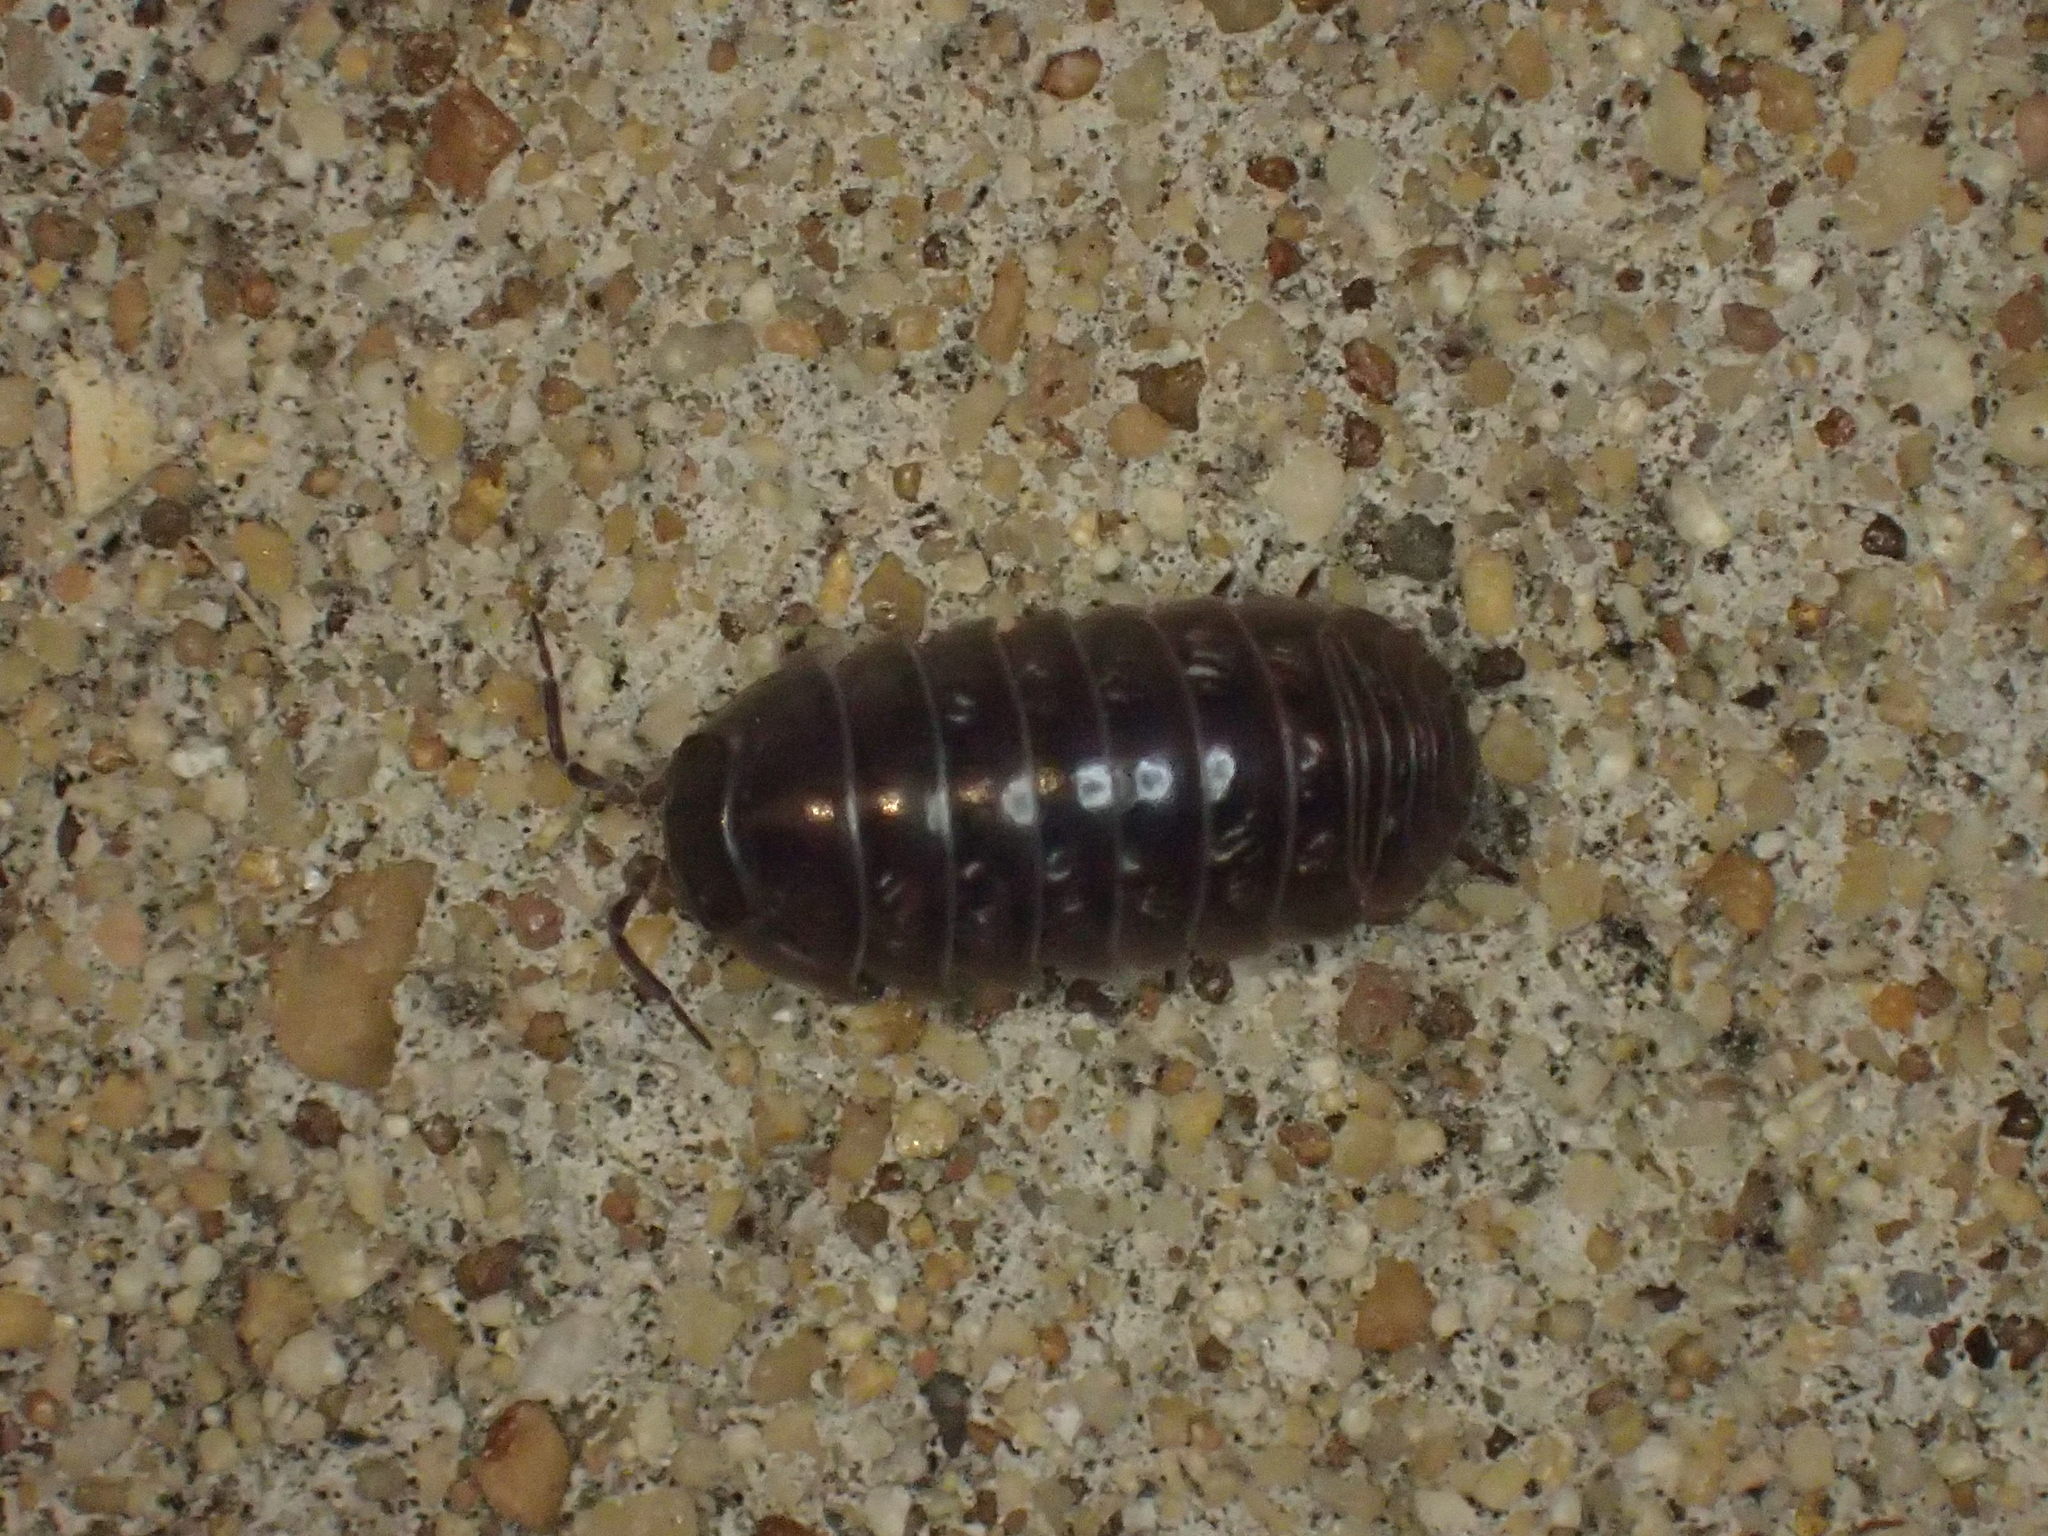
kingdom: Animalia
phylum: Arthropoda
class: Malacostraca
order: Isopoda
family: Armadillidiidae
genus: Armadillidium
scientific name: Armadillidium vulgare
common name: Common pill woodlouse
